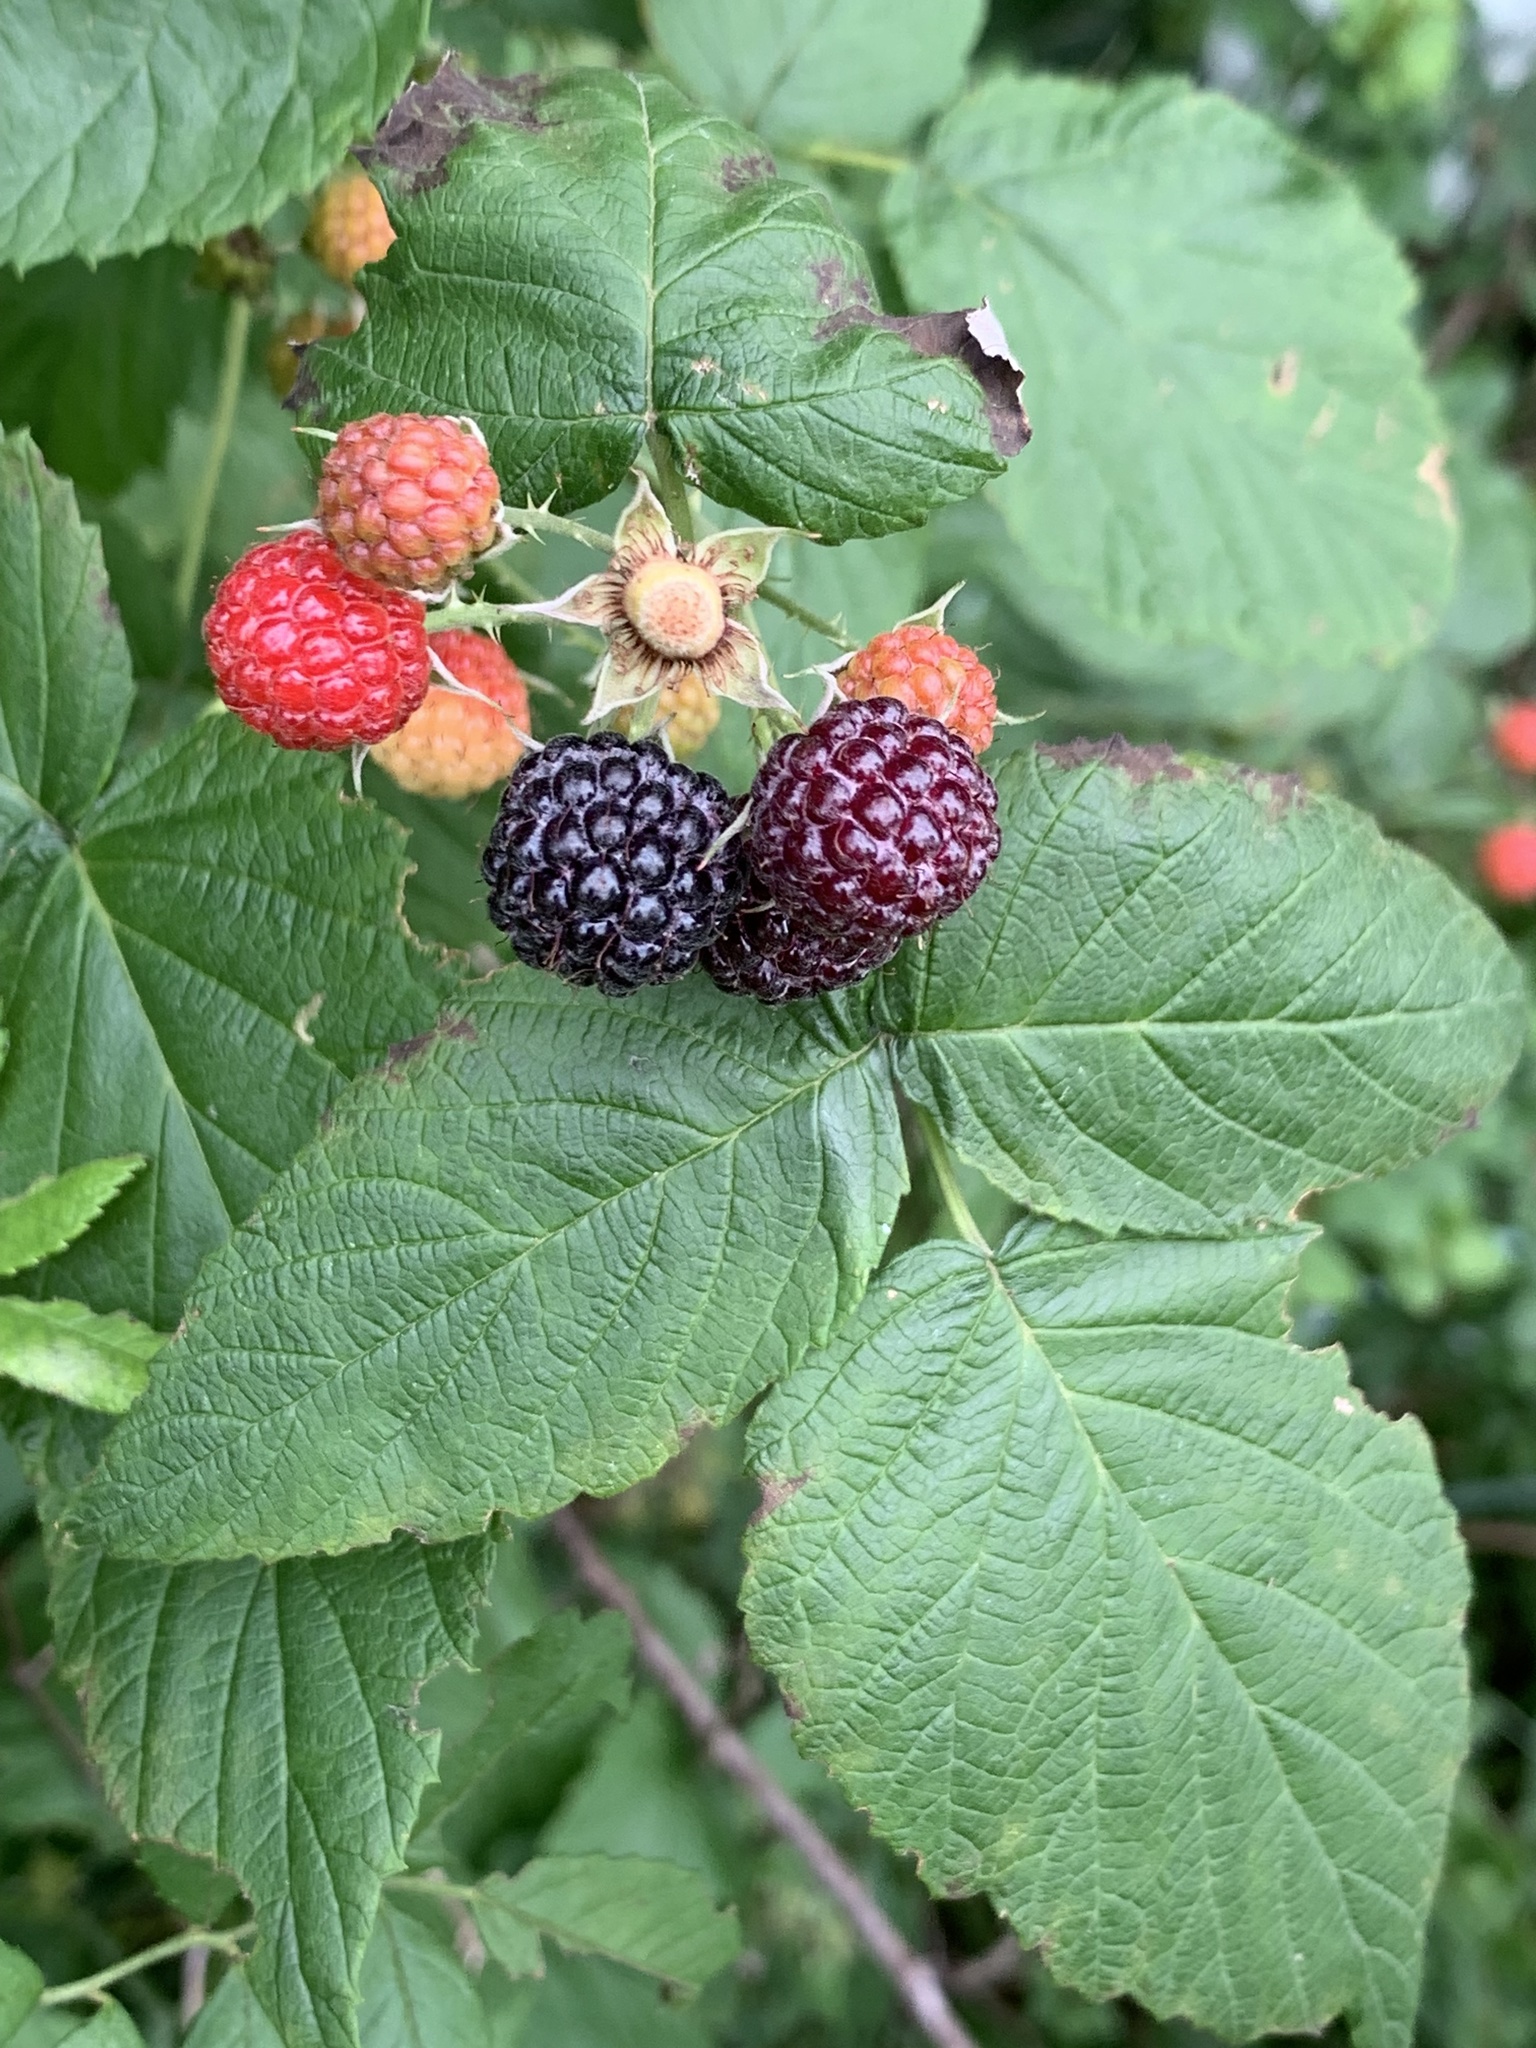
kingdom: Plantae
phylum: Tracheophyta
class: Magnoliopsida
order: Rosales
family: Rosaceae
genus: Rubus
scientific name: Rubus occidentalis
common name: Black raspberry
